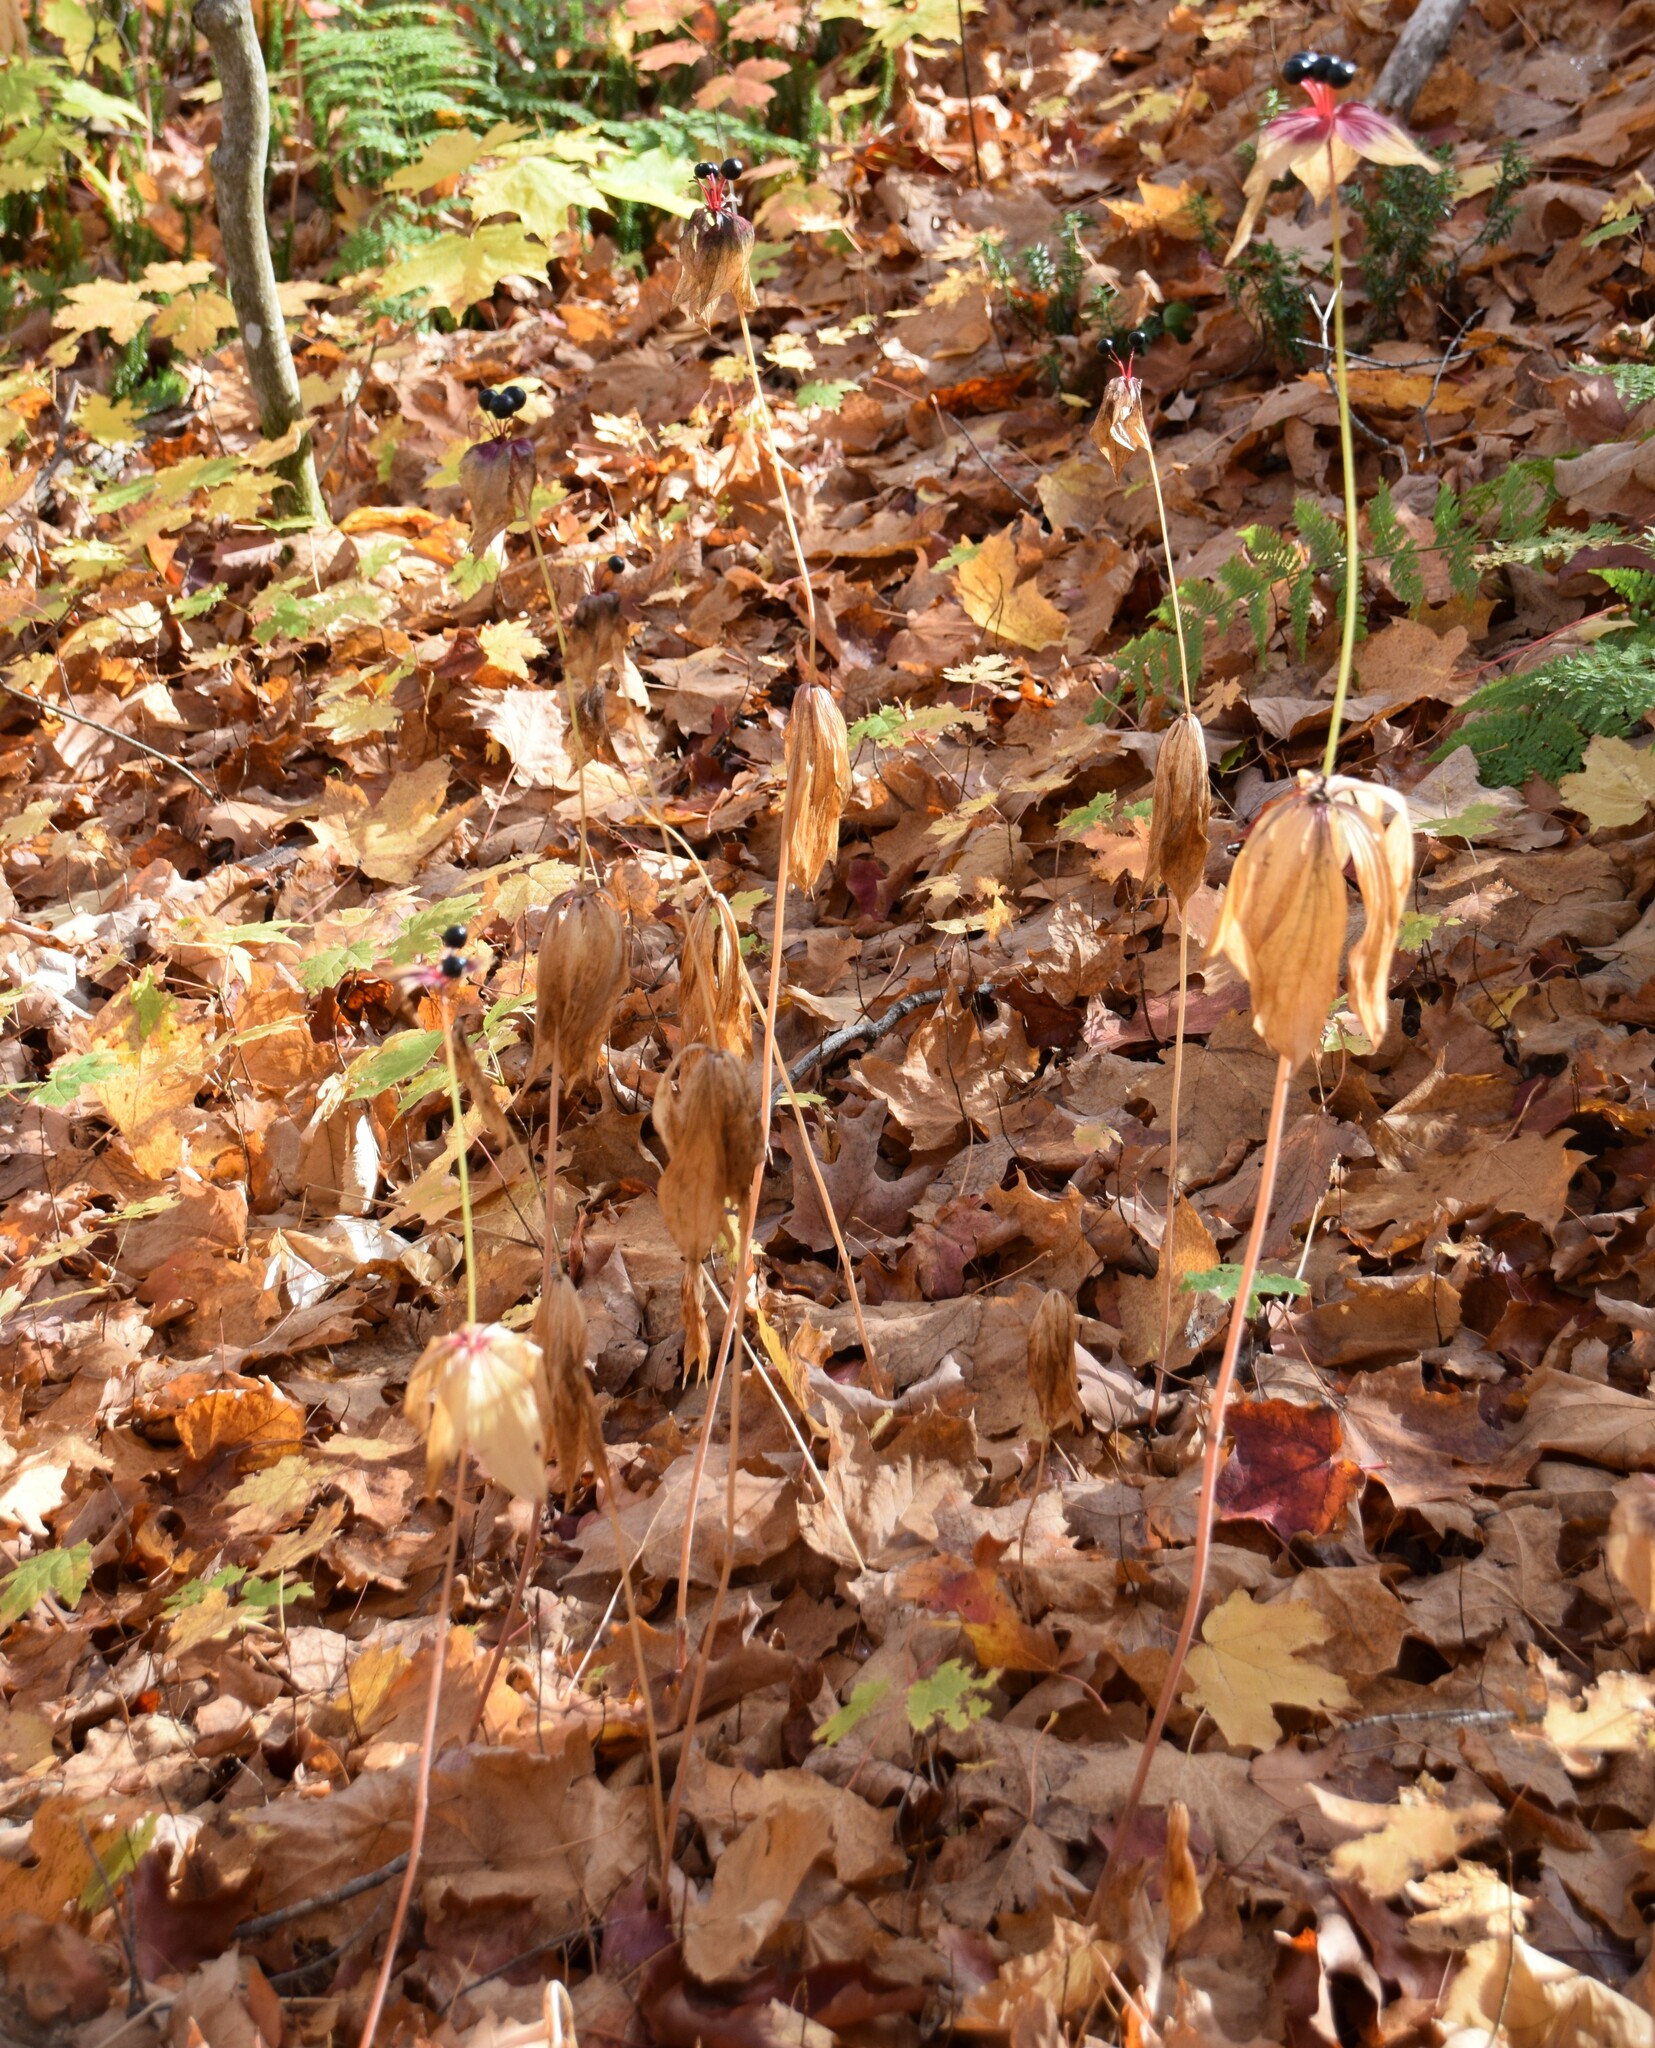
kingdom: Plantae
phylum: Tracheophyta
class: Liliopsida
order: Liliales
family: Liliaceae
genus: Medeola
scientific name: Medeola virginiana
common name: Indian cucumber-root
